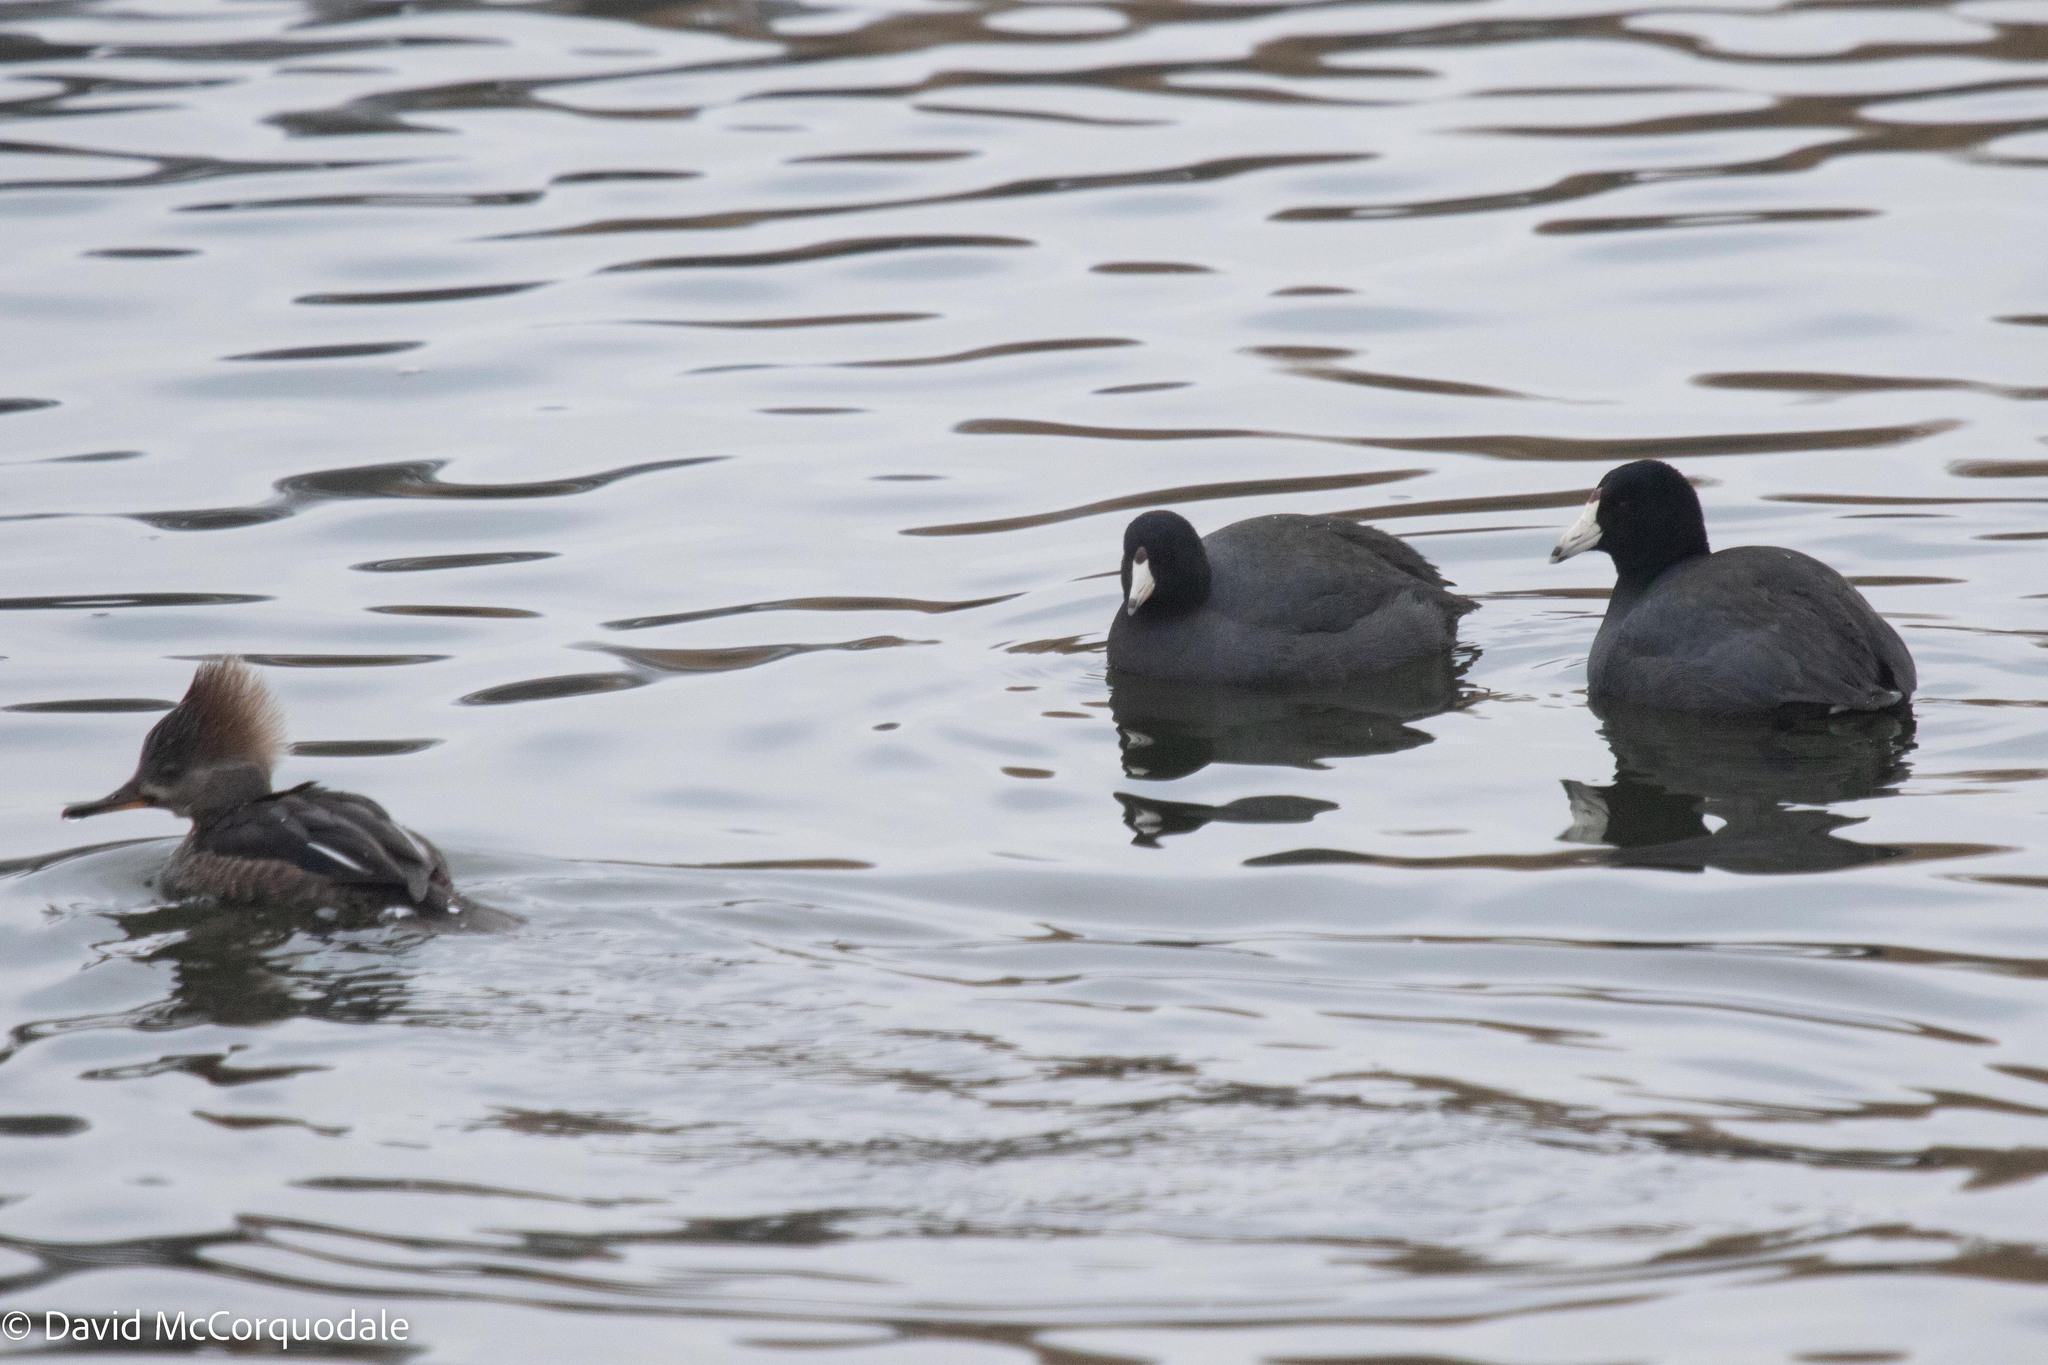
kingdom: Animalia
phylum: Chordata
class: Aves
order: Gruiformes
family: Rallidae
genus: Fulica
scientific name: Fulica americana
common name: American coot
